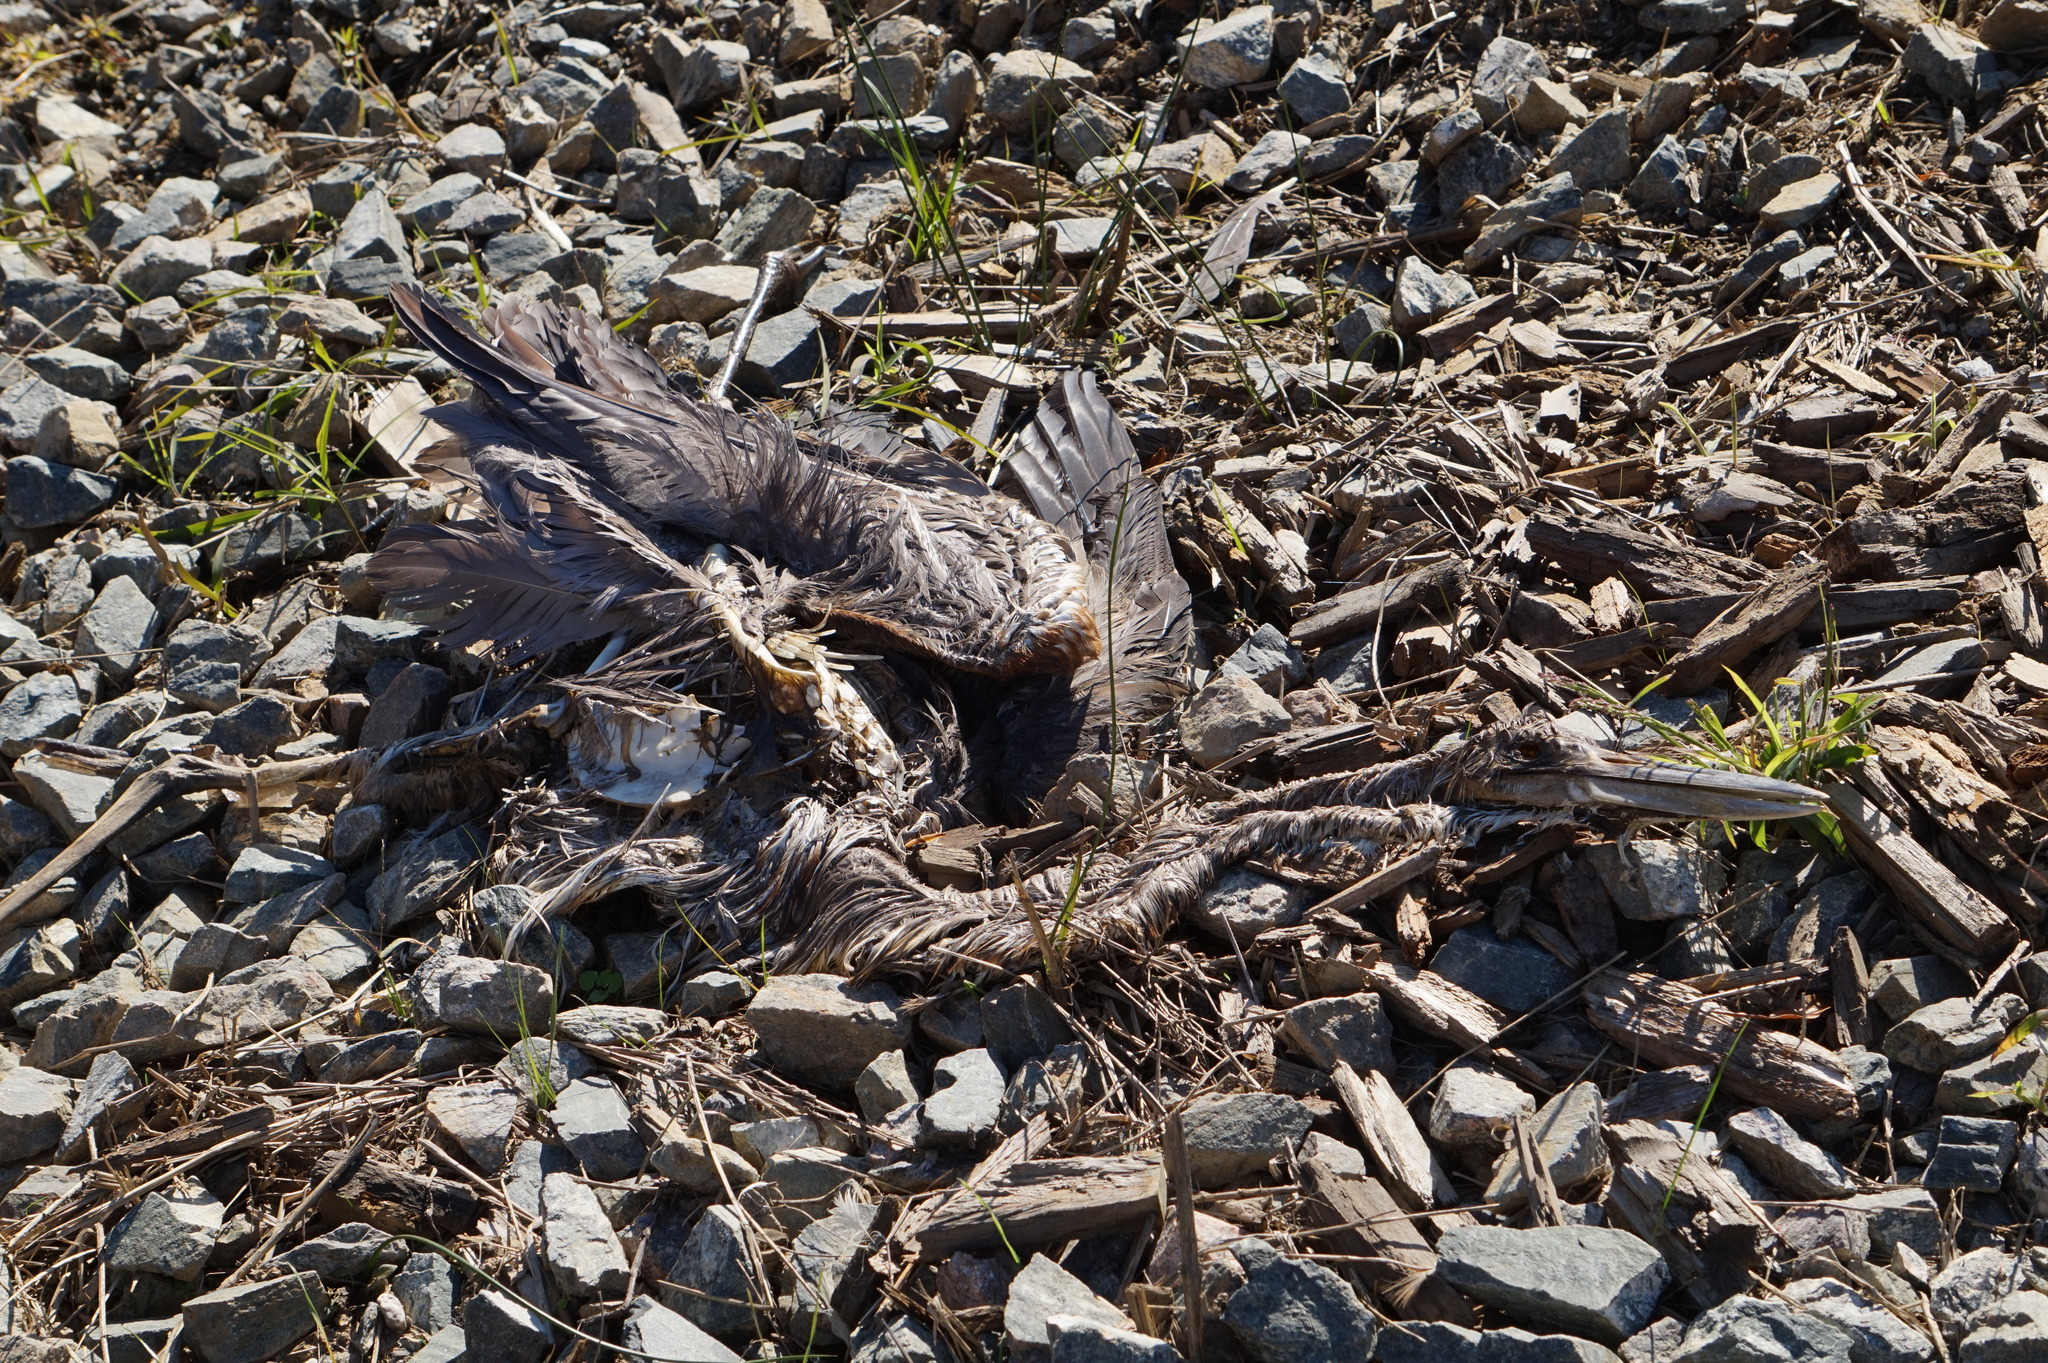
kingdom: Animalia
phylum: Chordata
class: Aves
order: Pelecaniformes
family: Ardeidae
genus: Ardea
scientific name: Ardea herodias
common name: Great blue heron
